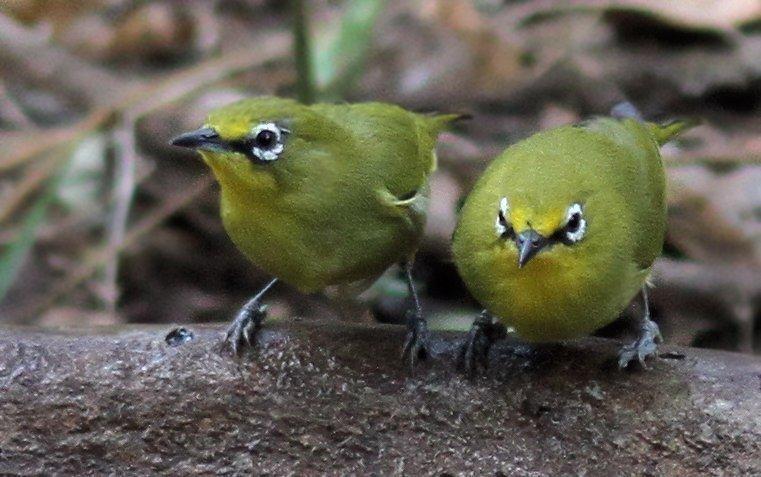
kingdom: Animalia
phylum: Chordata
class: Aves
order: Passeriformes
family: Zosteropidae
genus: Zosterops
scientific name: Zosterops virens
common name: Cape white-eye
